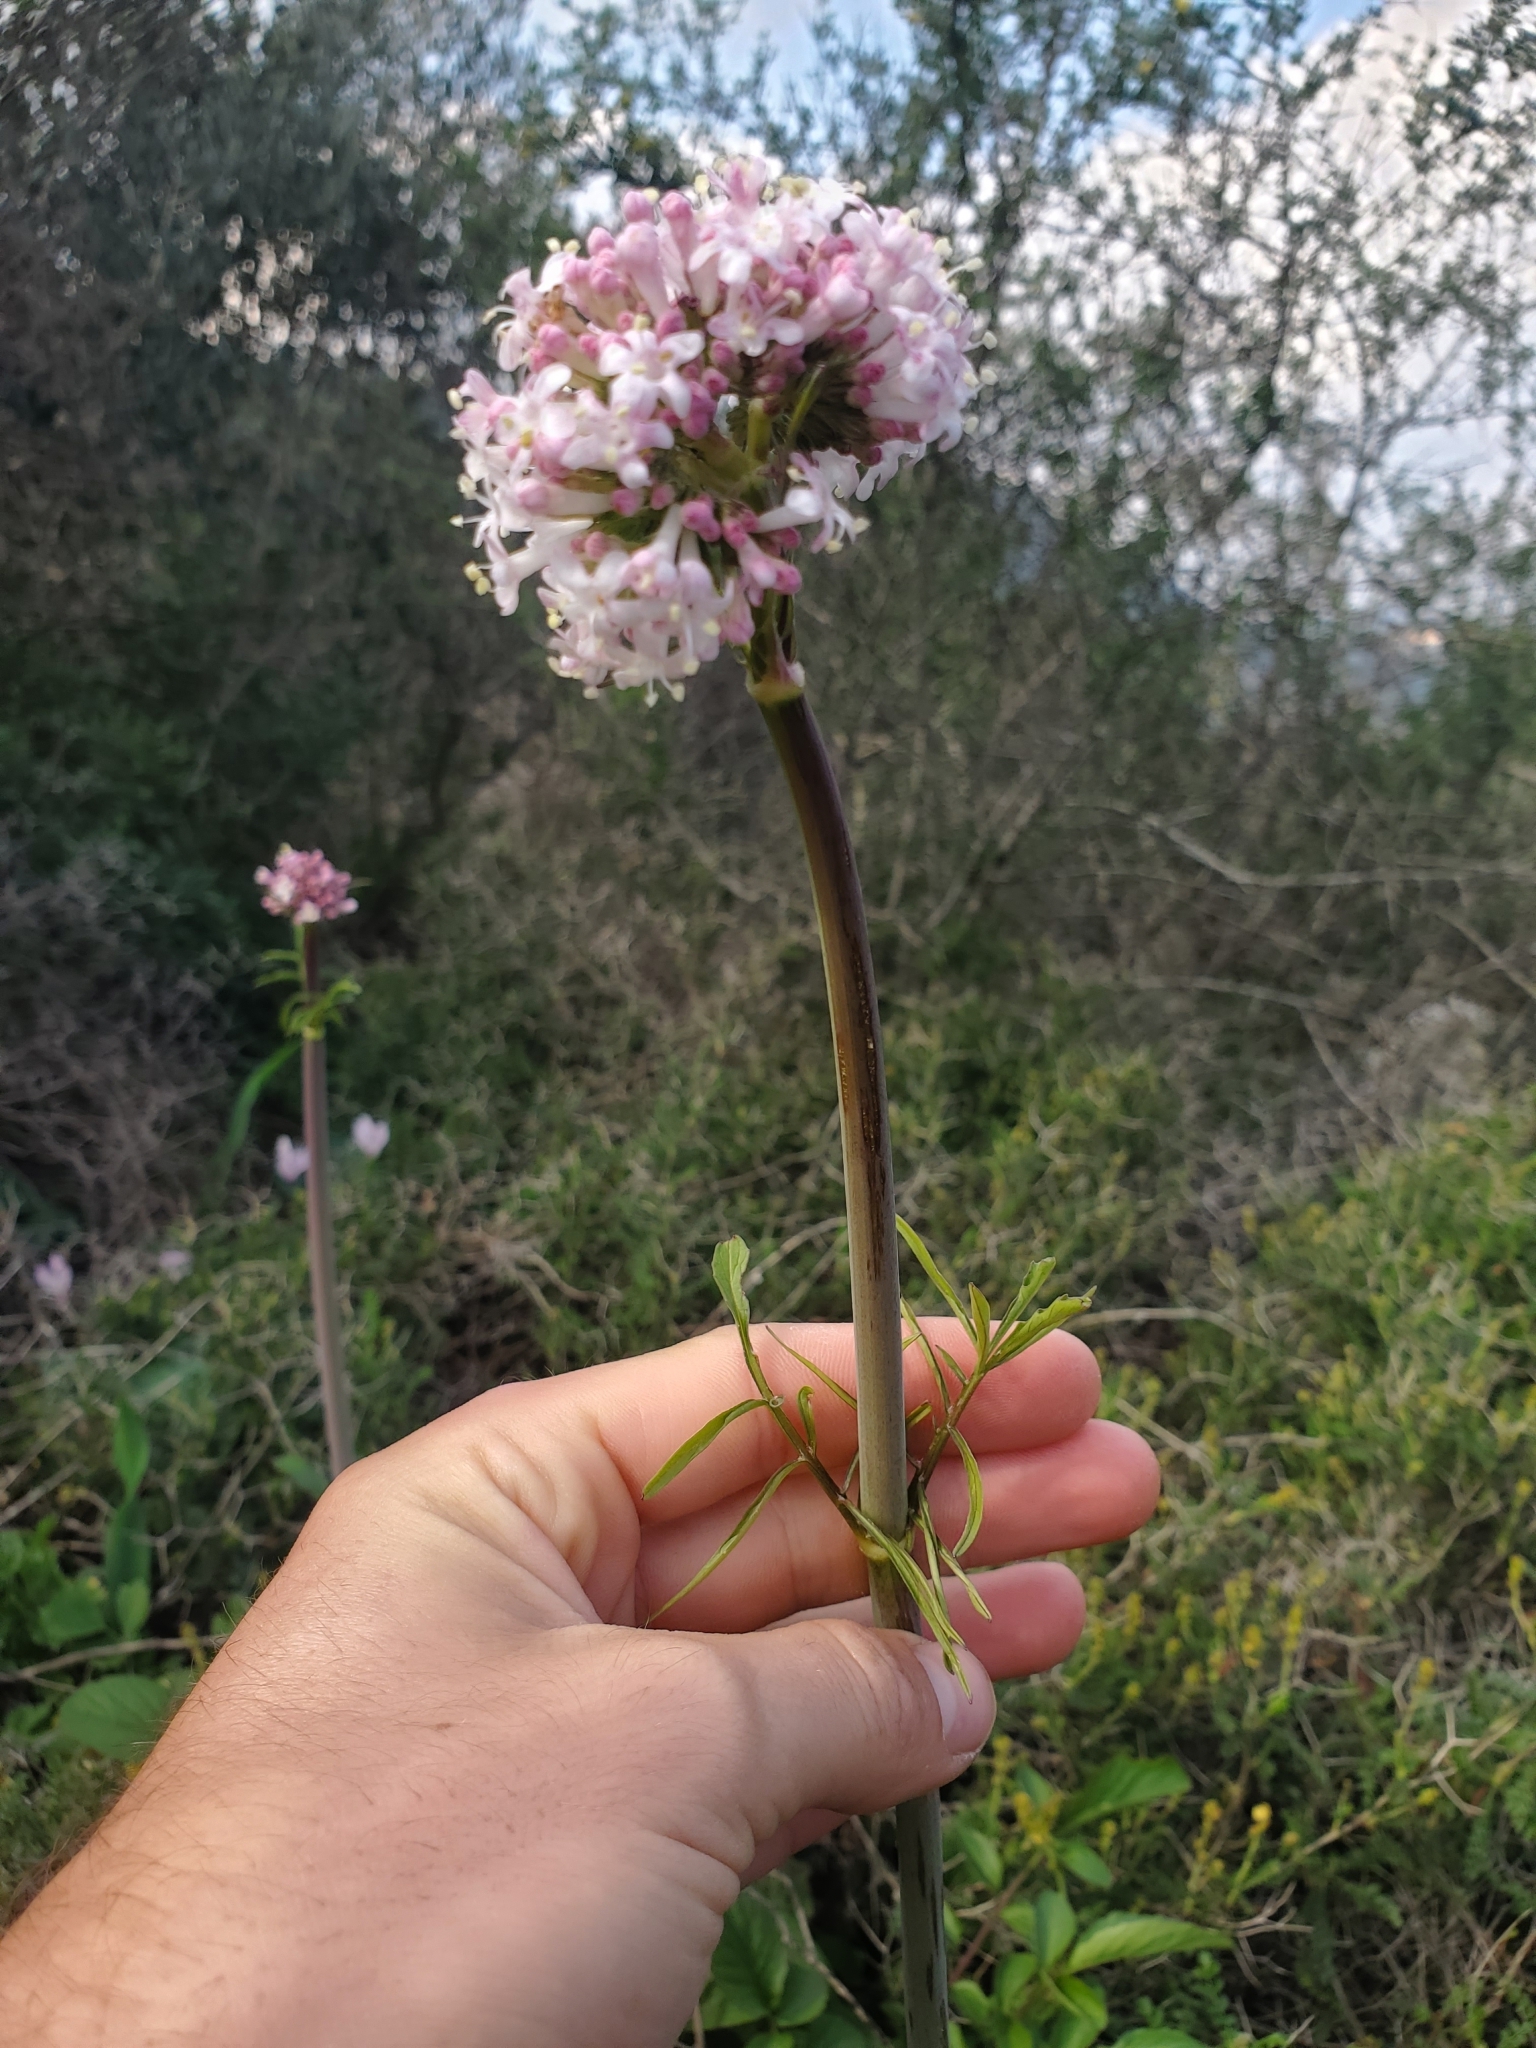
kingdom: Plantae
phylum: Tracheophyta
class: Magnoliopsida
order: Dipsacales
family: Caprifoliaceae
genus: Valeriana
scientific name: Valeriana dioscoridis
